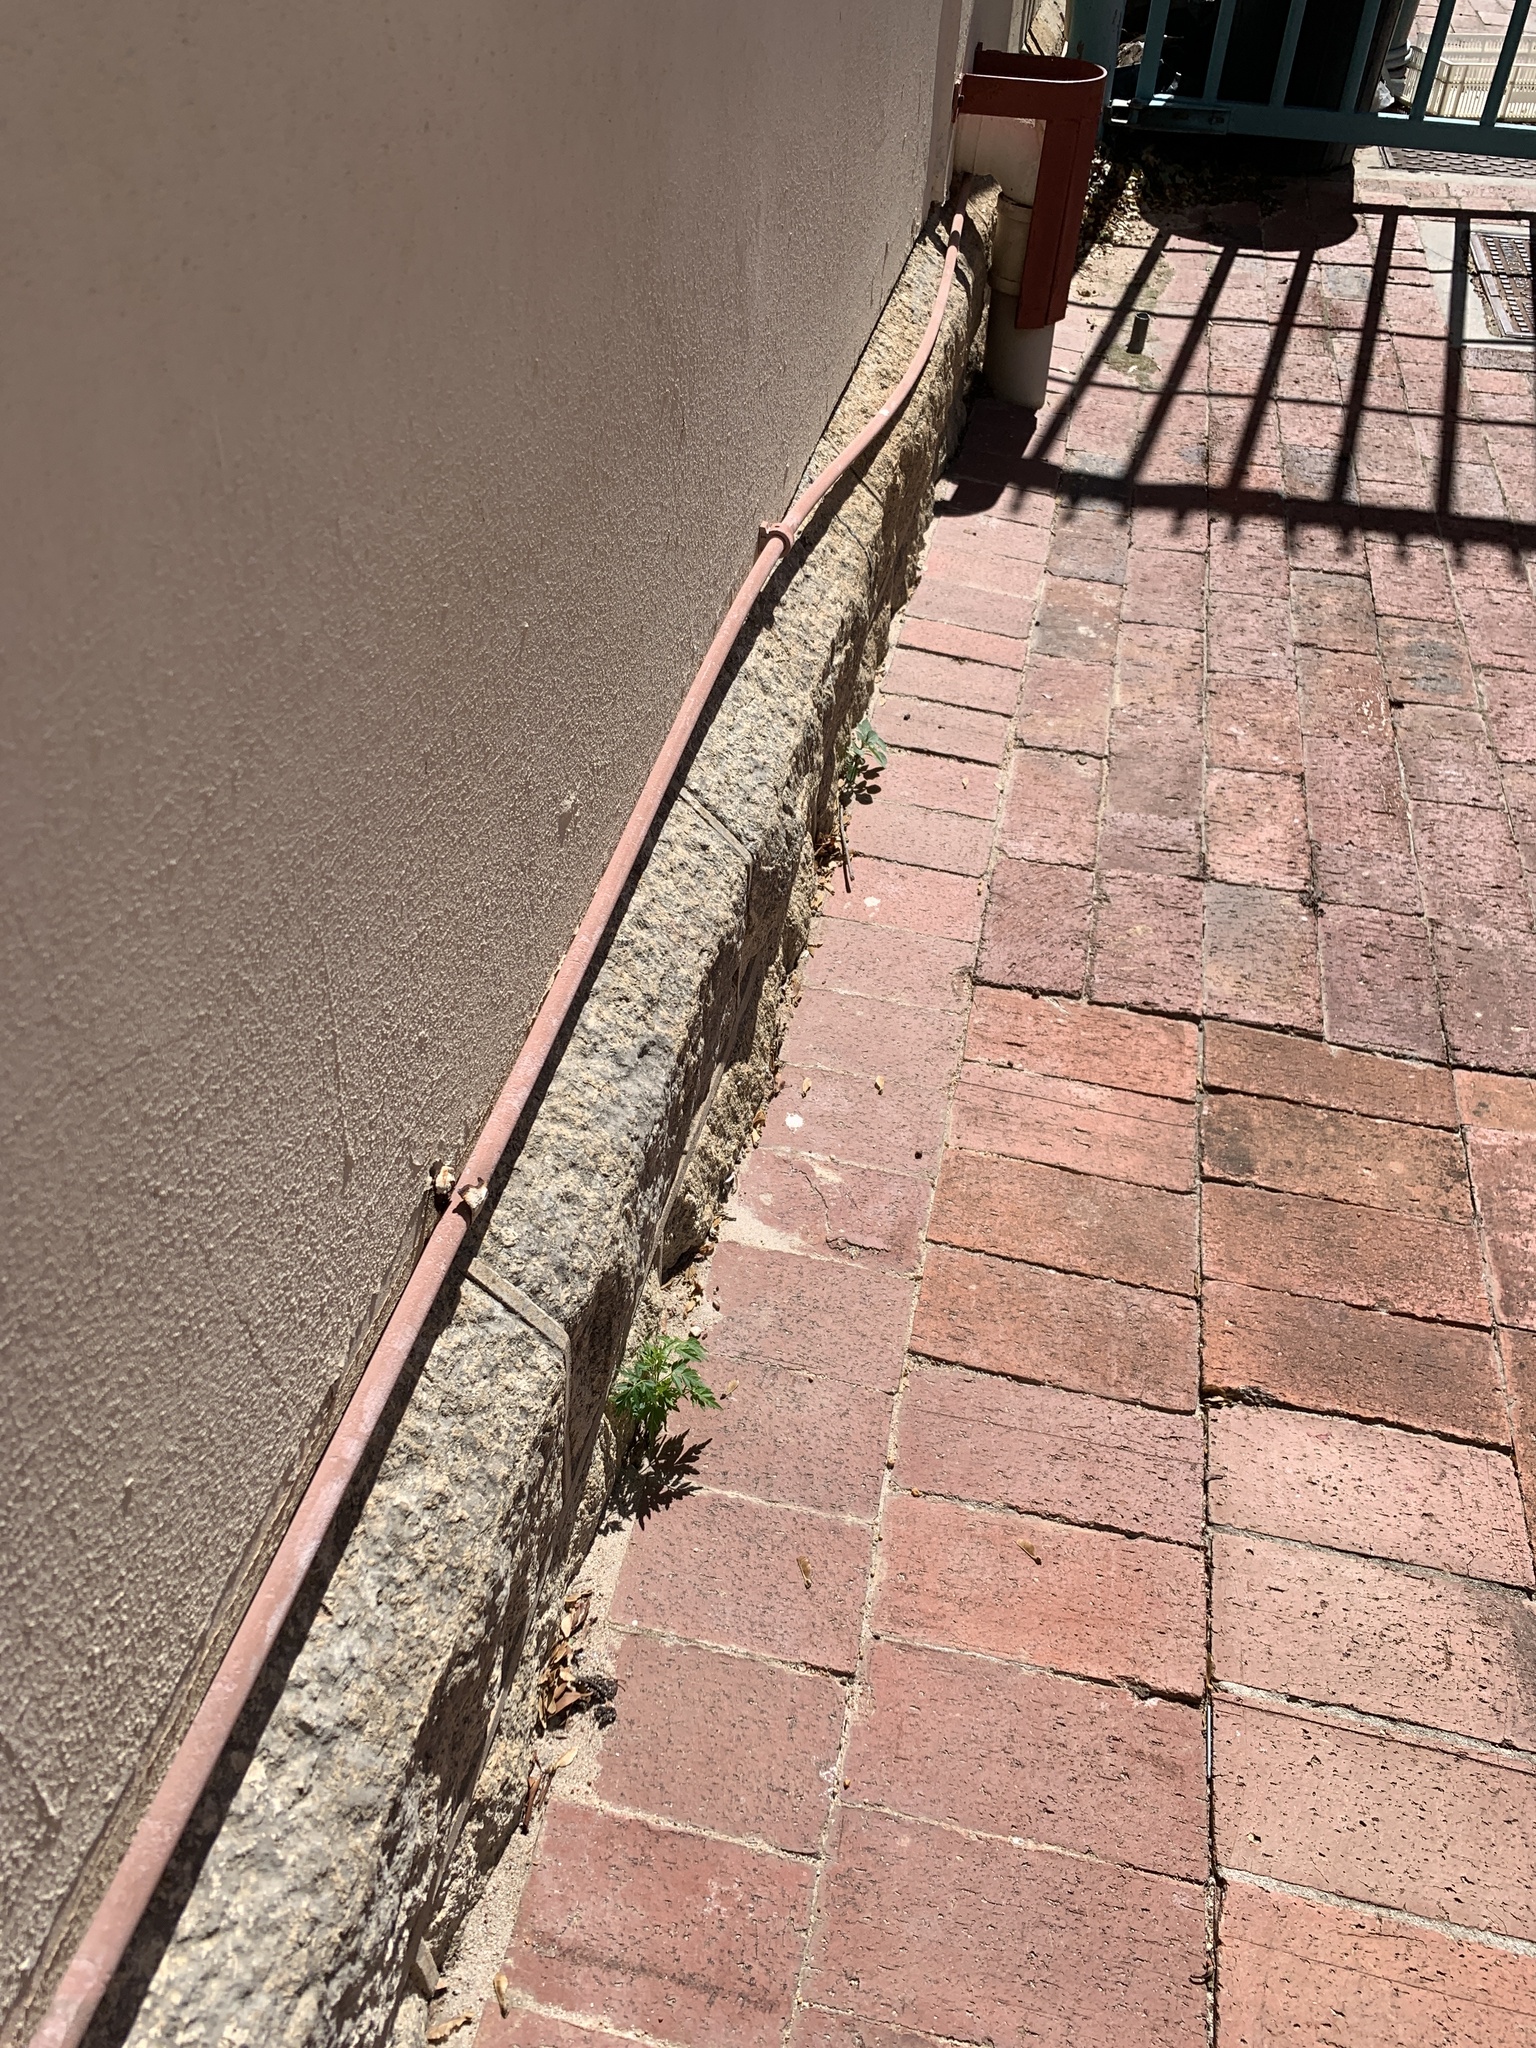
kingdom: Plantae
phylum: Tracheophyta
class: Magnoliopsida
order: Sapindales
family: Meliaceae
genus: Melia
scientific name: Melia azedarach
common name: Chinaberrytree
